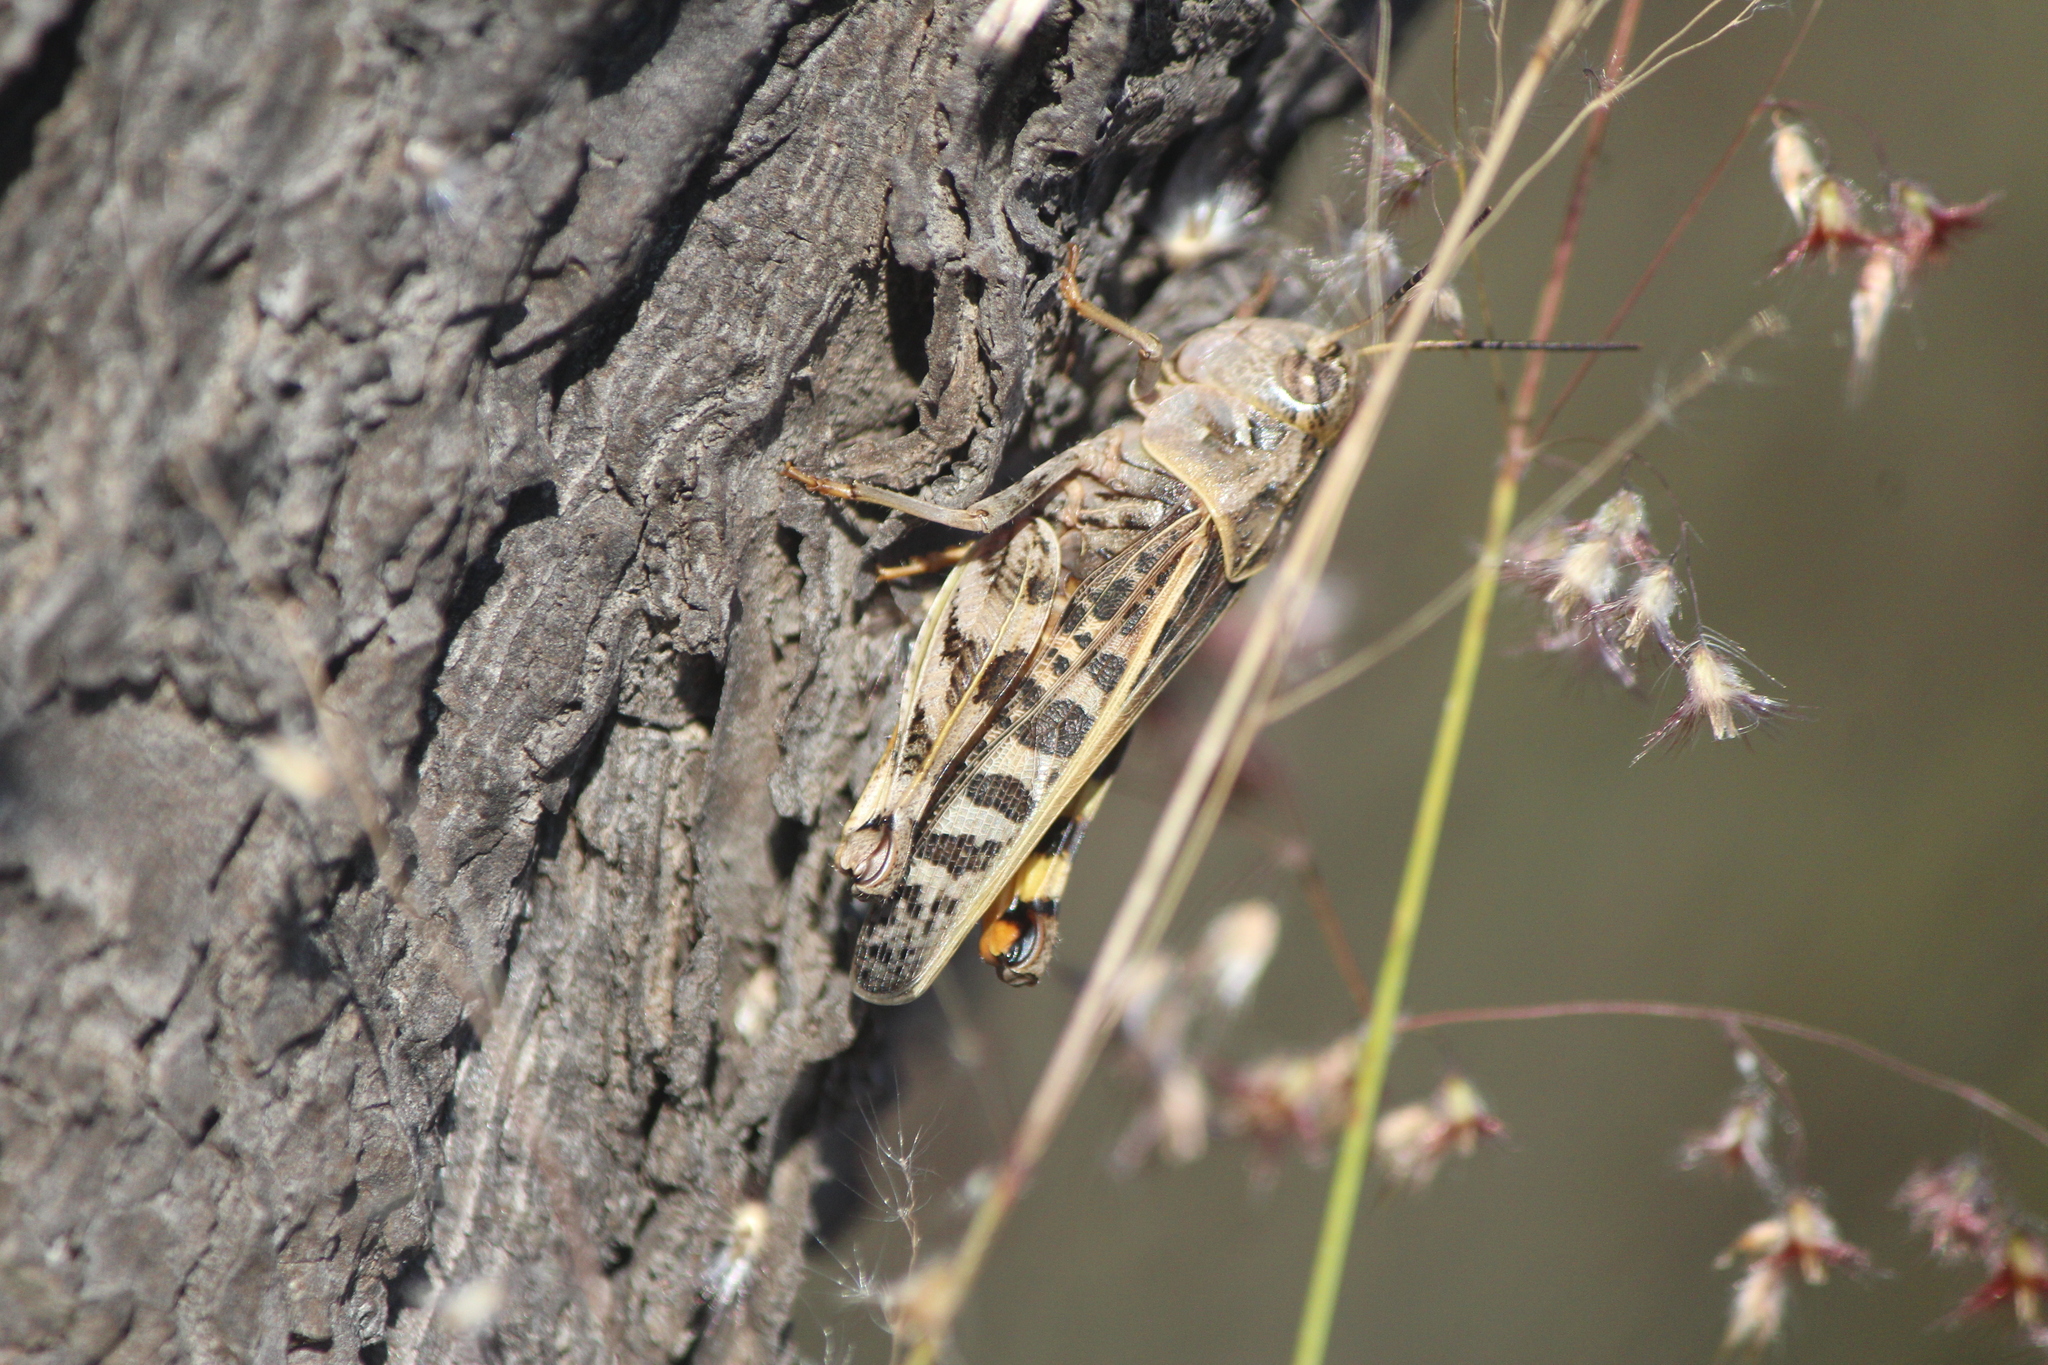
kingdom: Animalia
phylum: Arthropoda
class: Insecta
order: Orthoptera
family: Acrididae
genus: Hippiscus
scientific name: Hippiscus ocelote
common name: Wrinkled grasshopper
